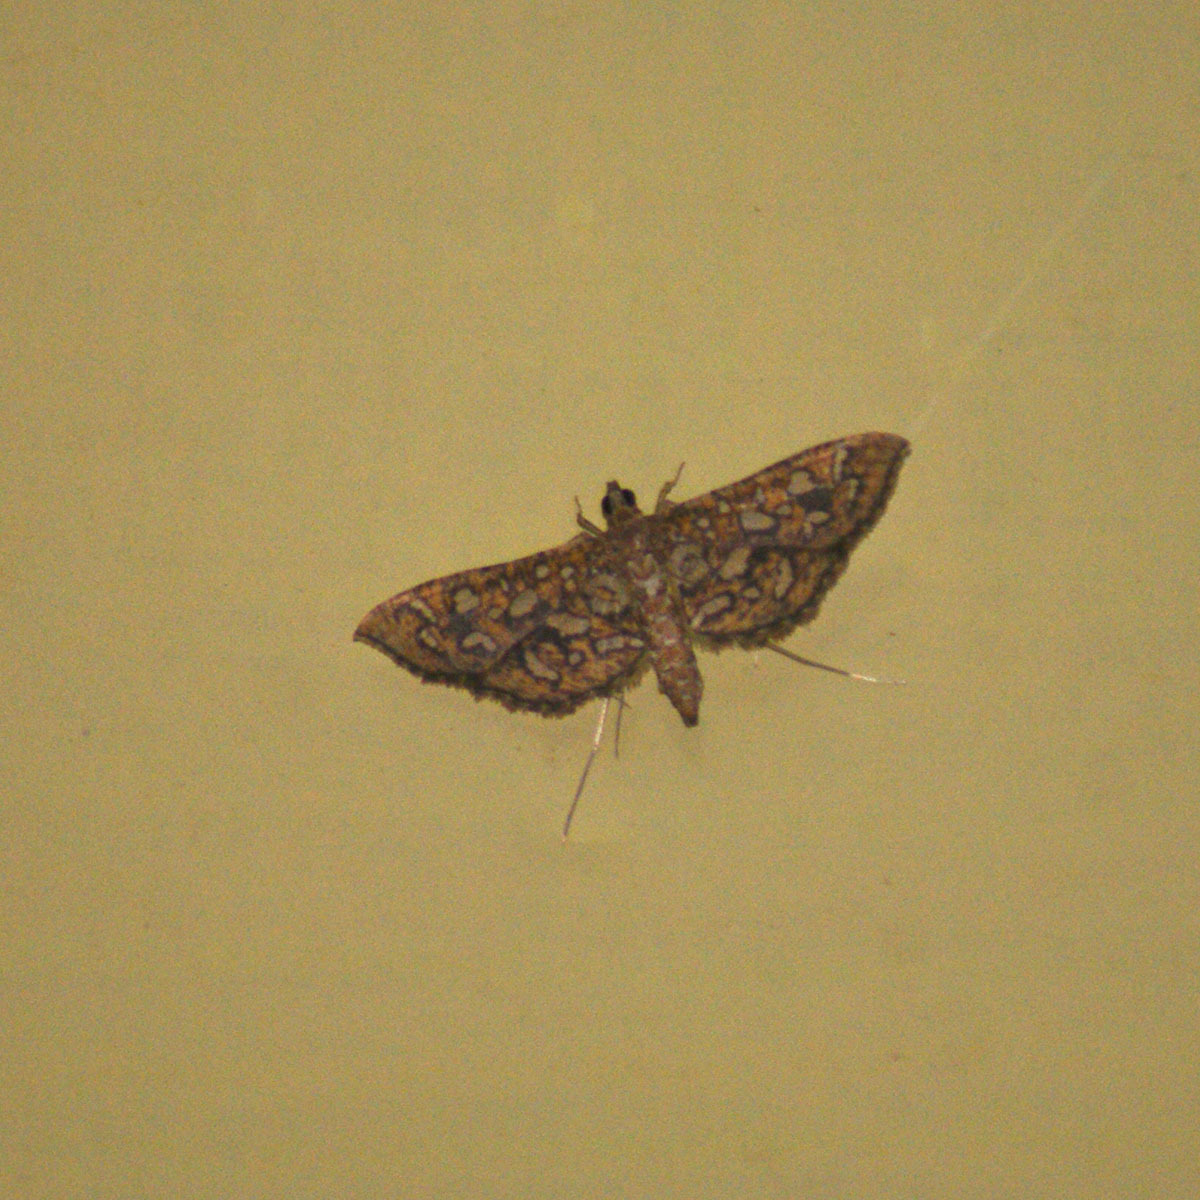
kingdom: Animalia
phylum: Arthropoda
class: Insecta
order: Lepidoptera
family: Crambidae
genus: Nausinoe
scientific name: Nausinoe geometralis
